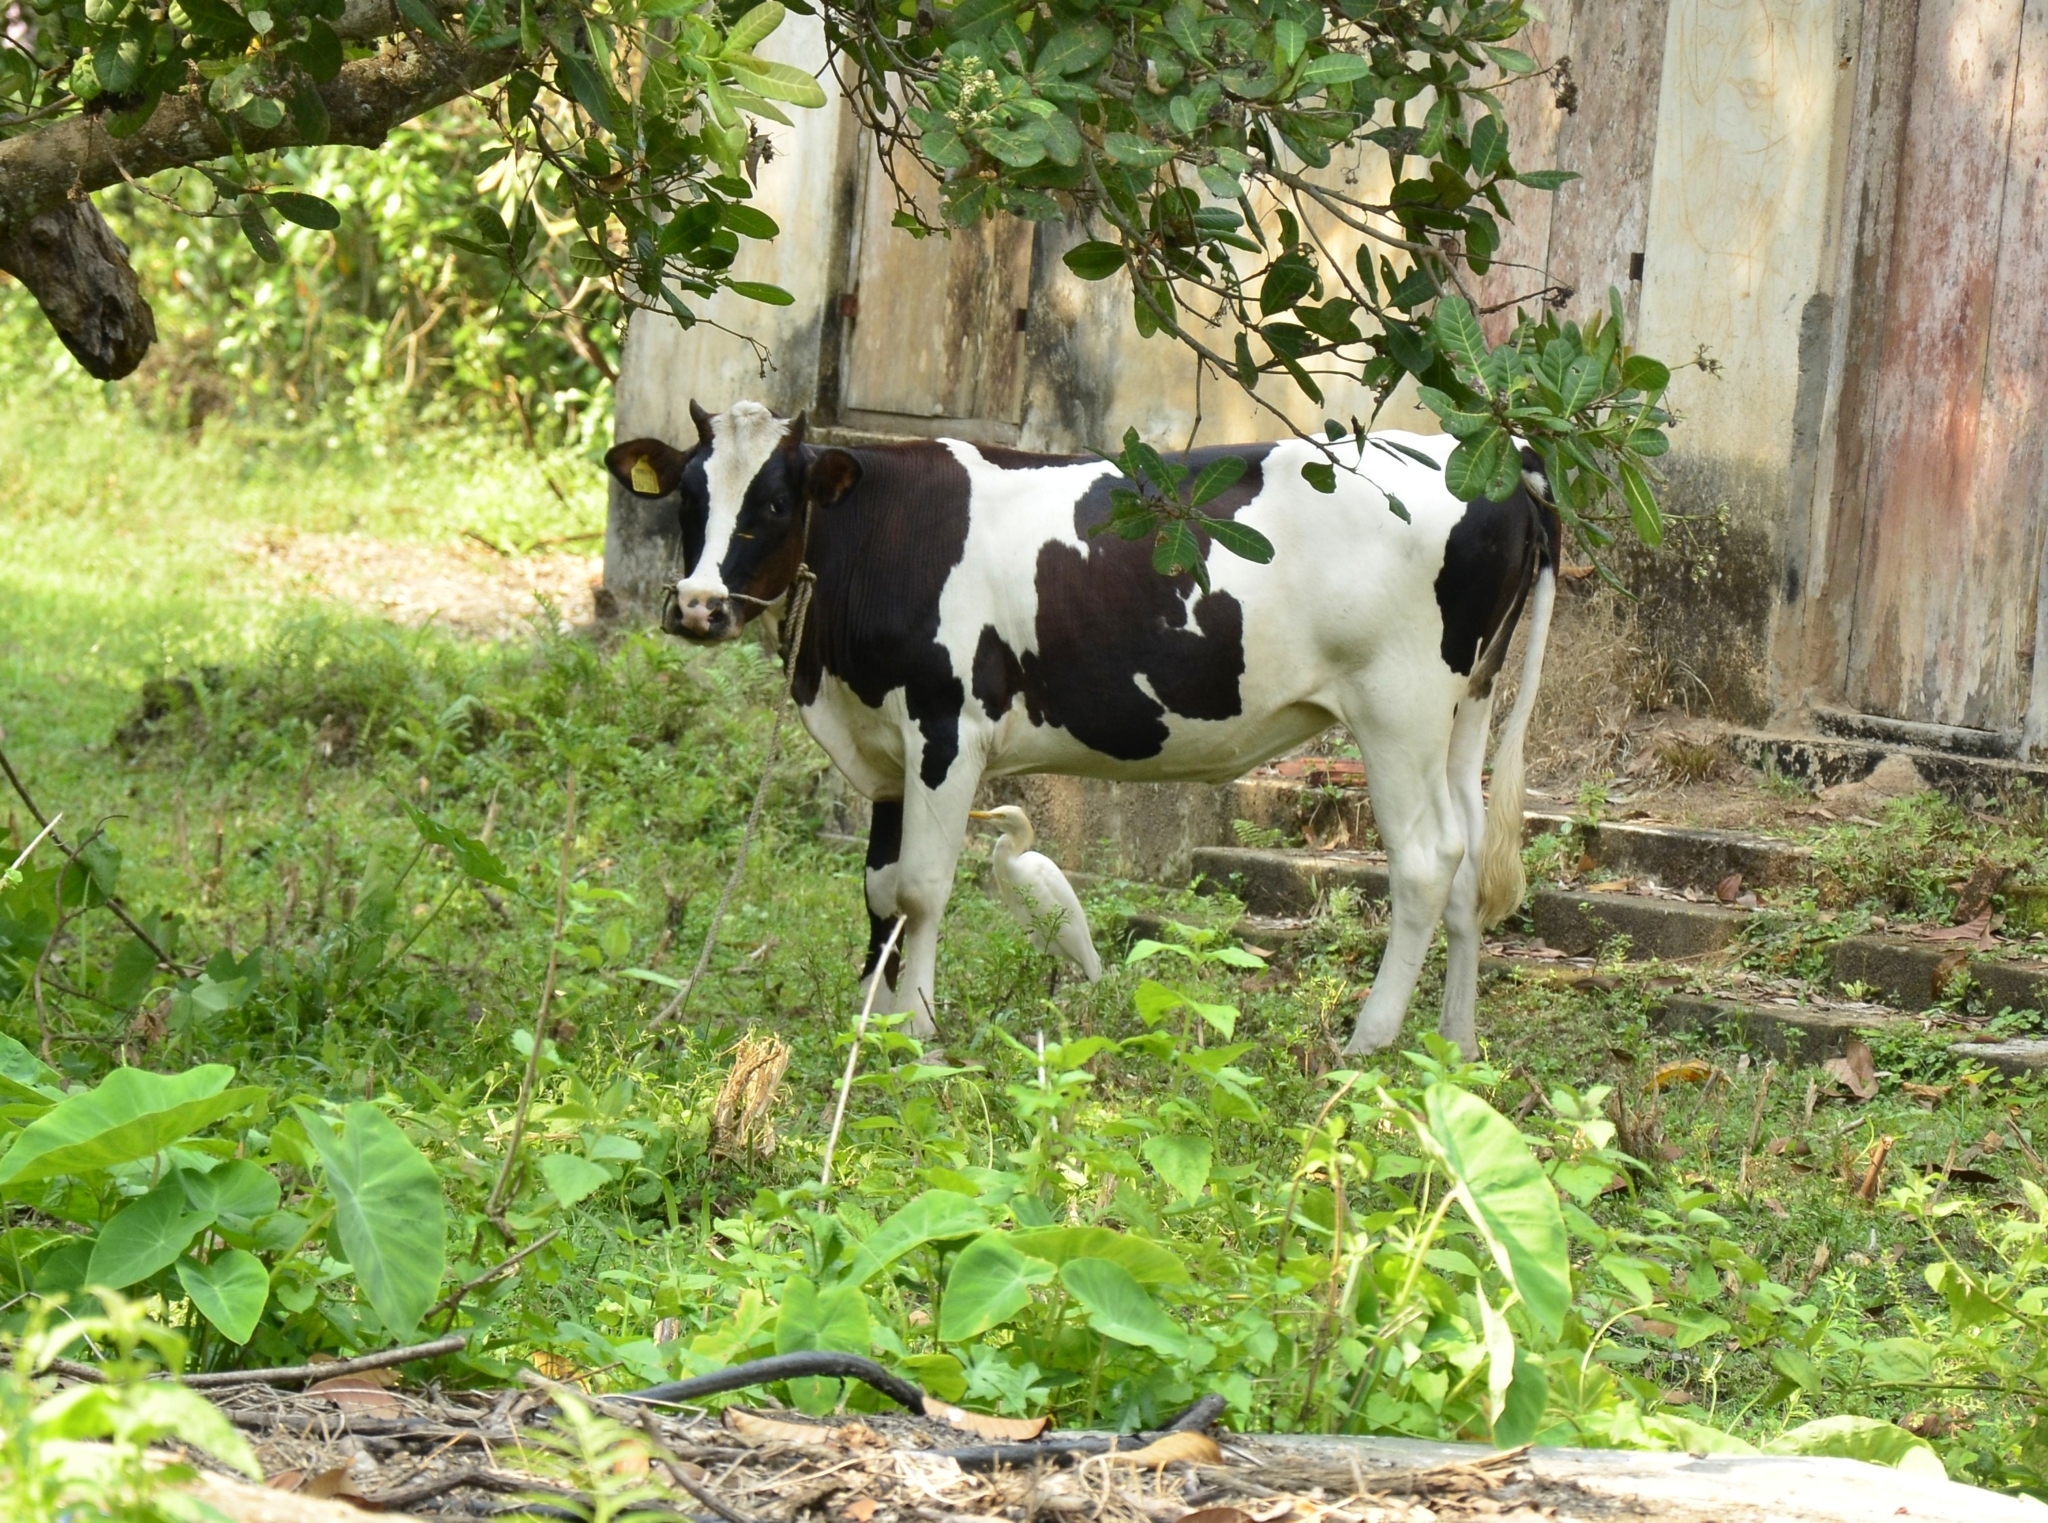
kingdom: Animalia
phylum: Chordata
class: Aves
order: Pelecaniformes
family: Ardeidae
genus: Bubulcus
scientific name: Bubulcus coromandus
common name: Eastern cattle egret
